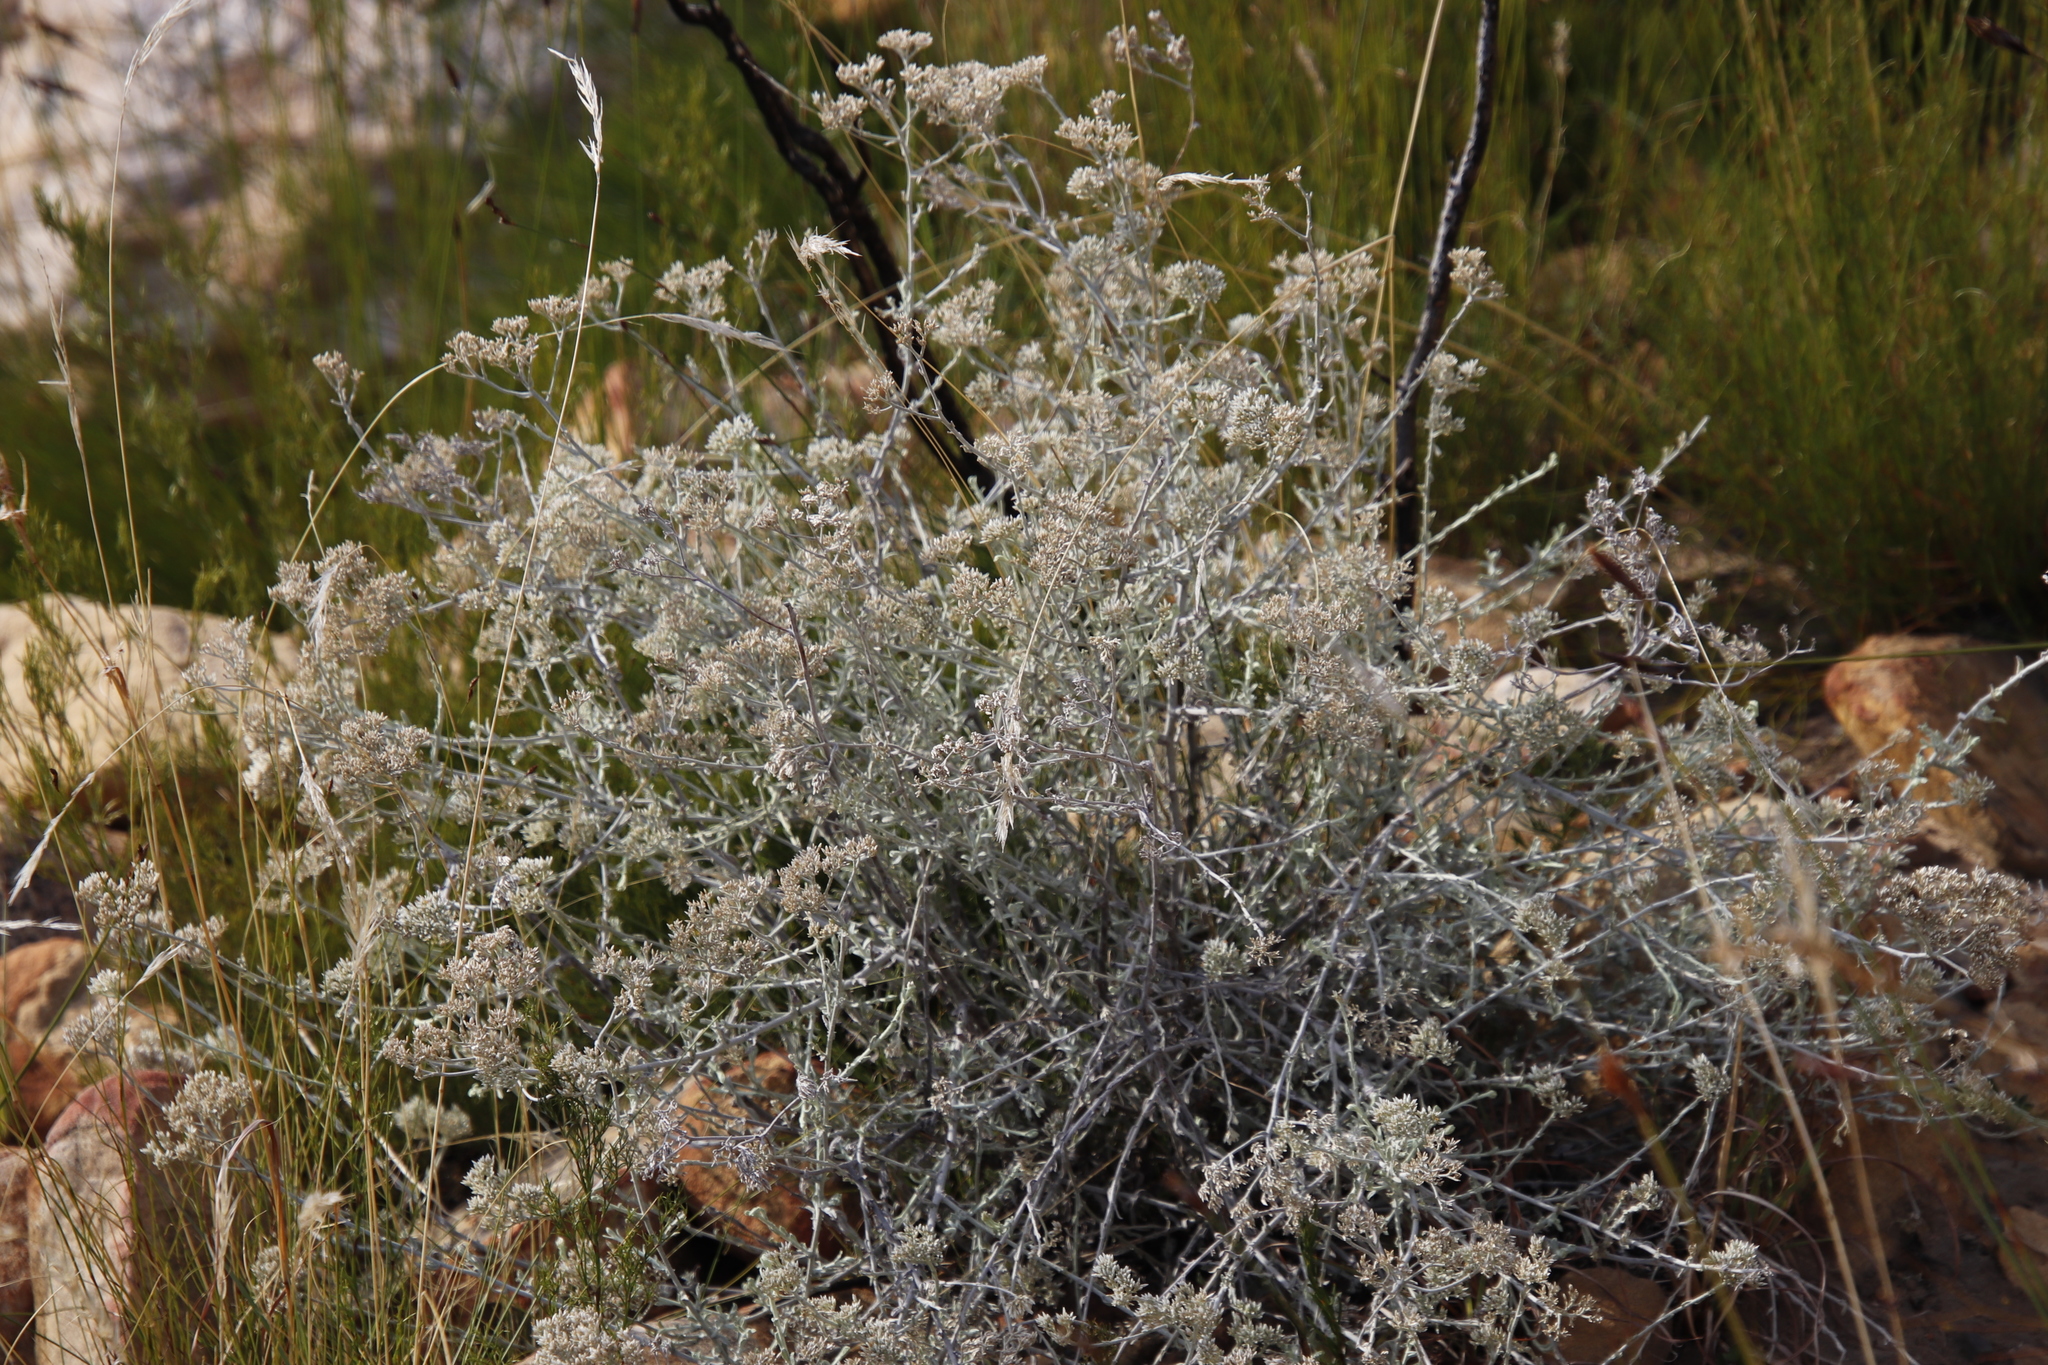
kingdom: Plantae
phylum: Tracheophyta
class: Magnoliopsida
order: Asterales
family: Asteraceae
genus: Helichrysum
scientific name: Helichrysum zeyheri
